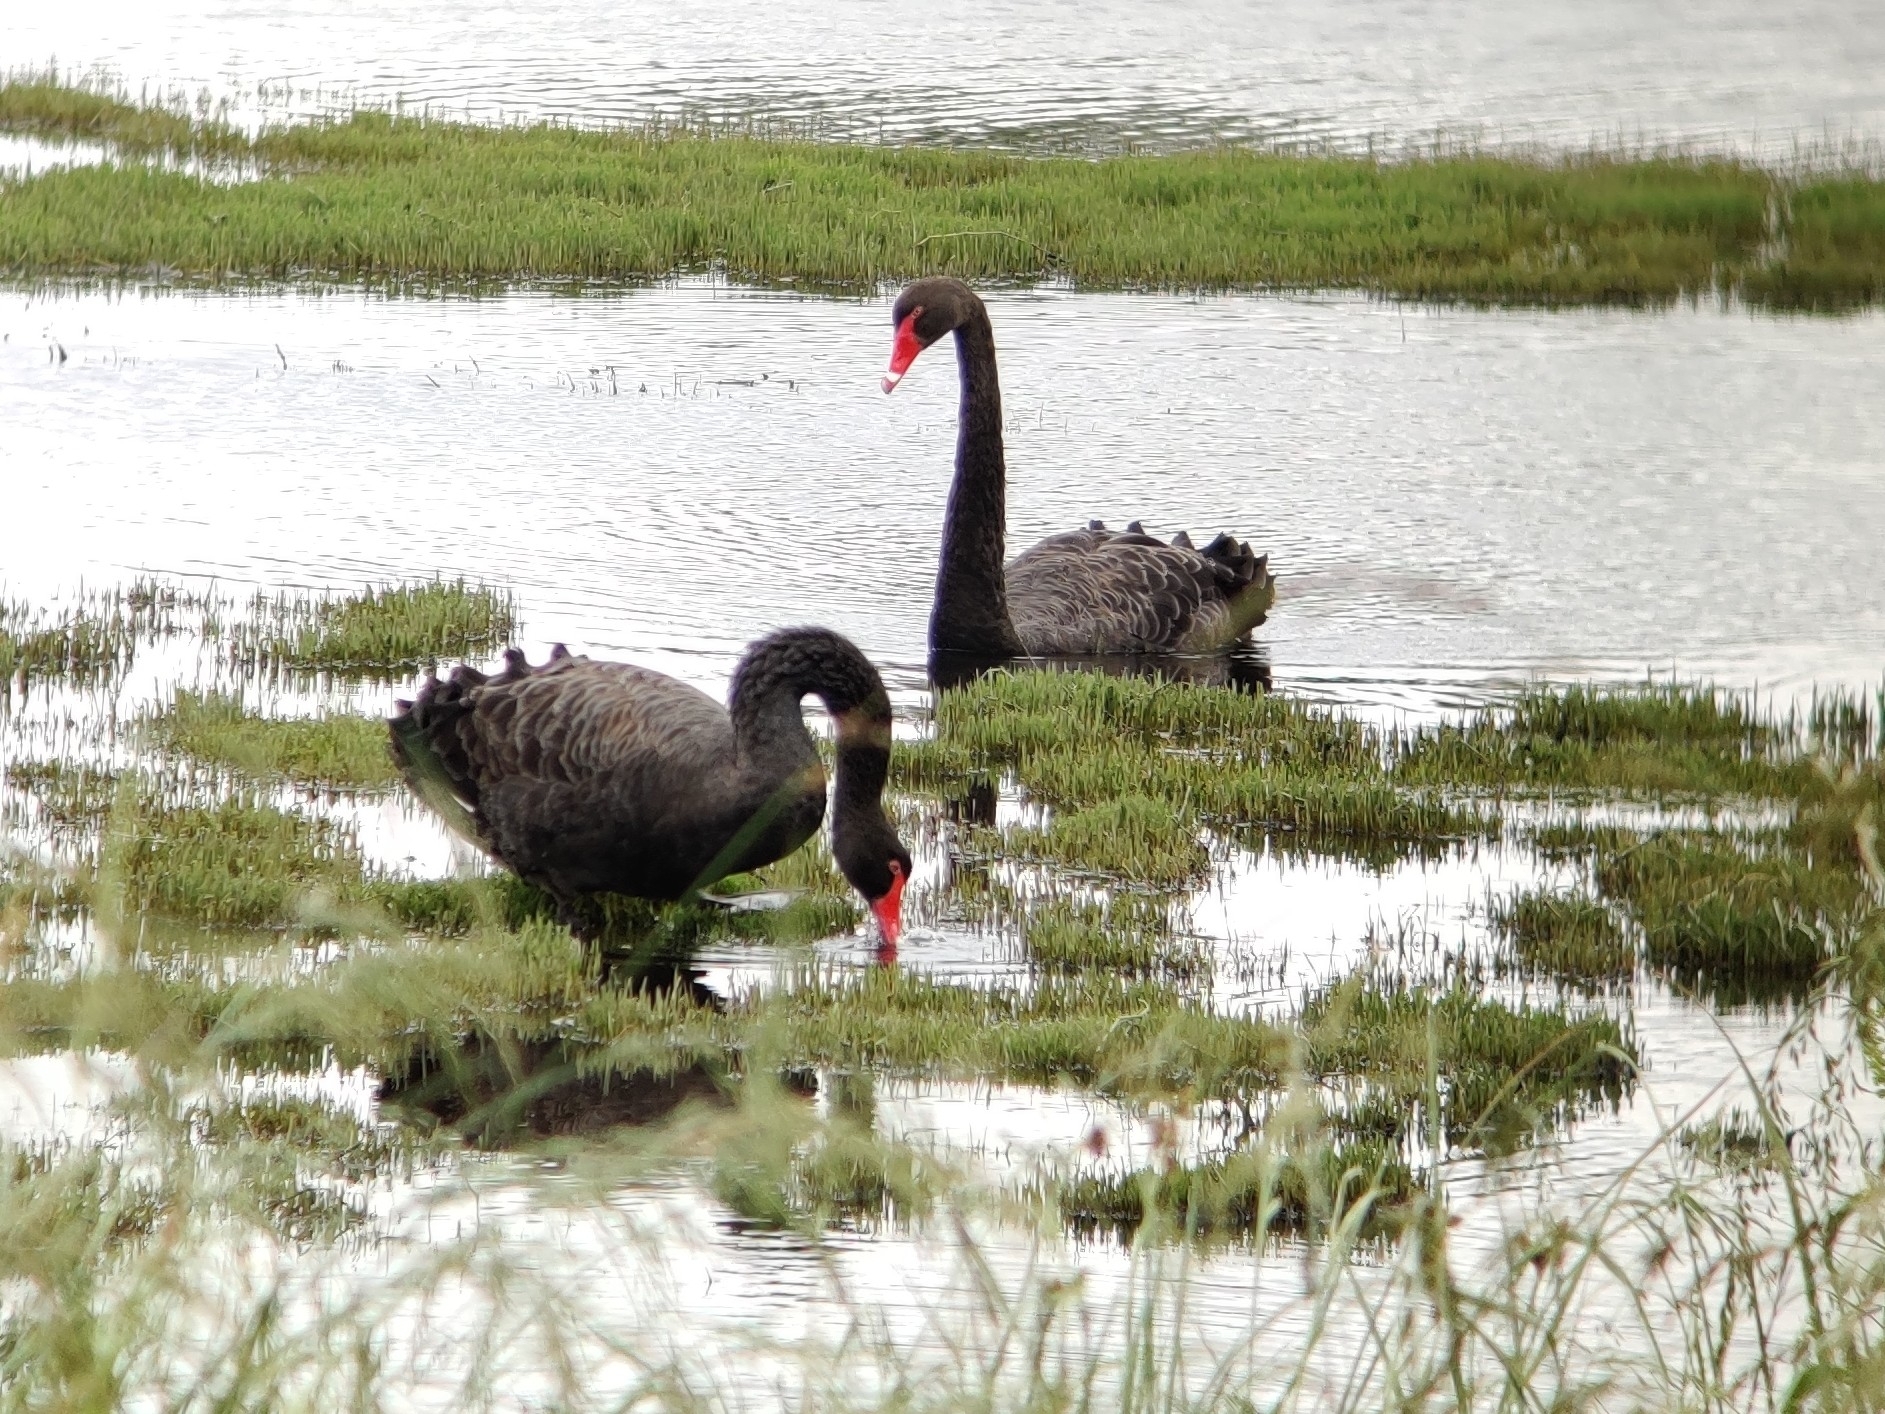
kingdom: Animalia
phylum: Chordata
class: Aves
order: Anseriformes
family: Anatidae
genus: Cygnus
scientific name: Cygnus atratus
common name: Black swan
